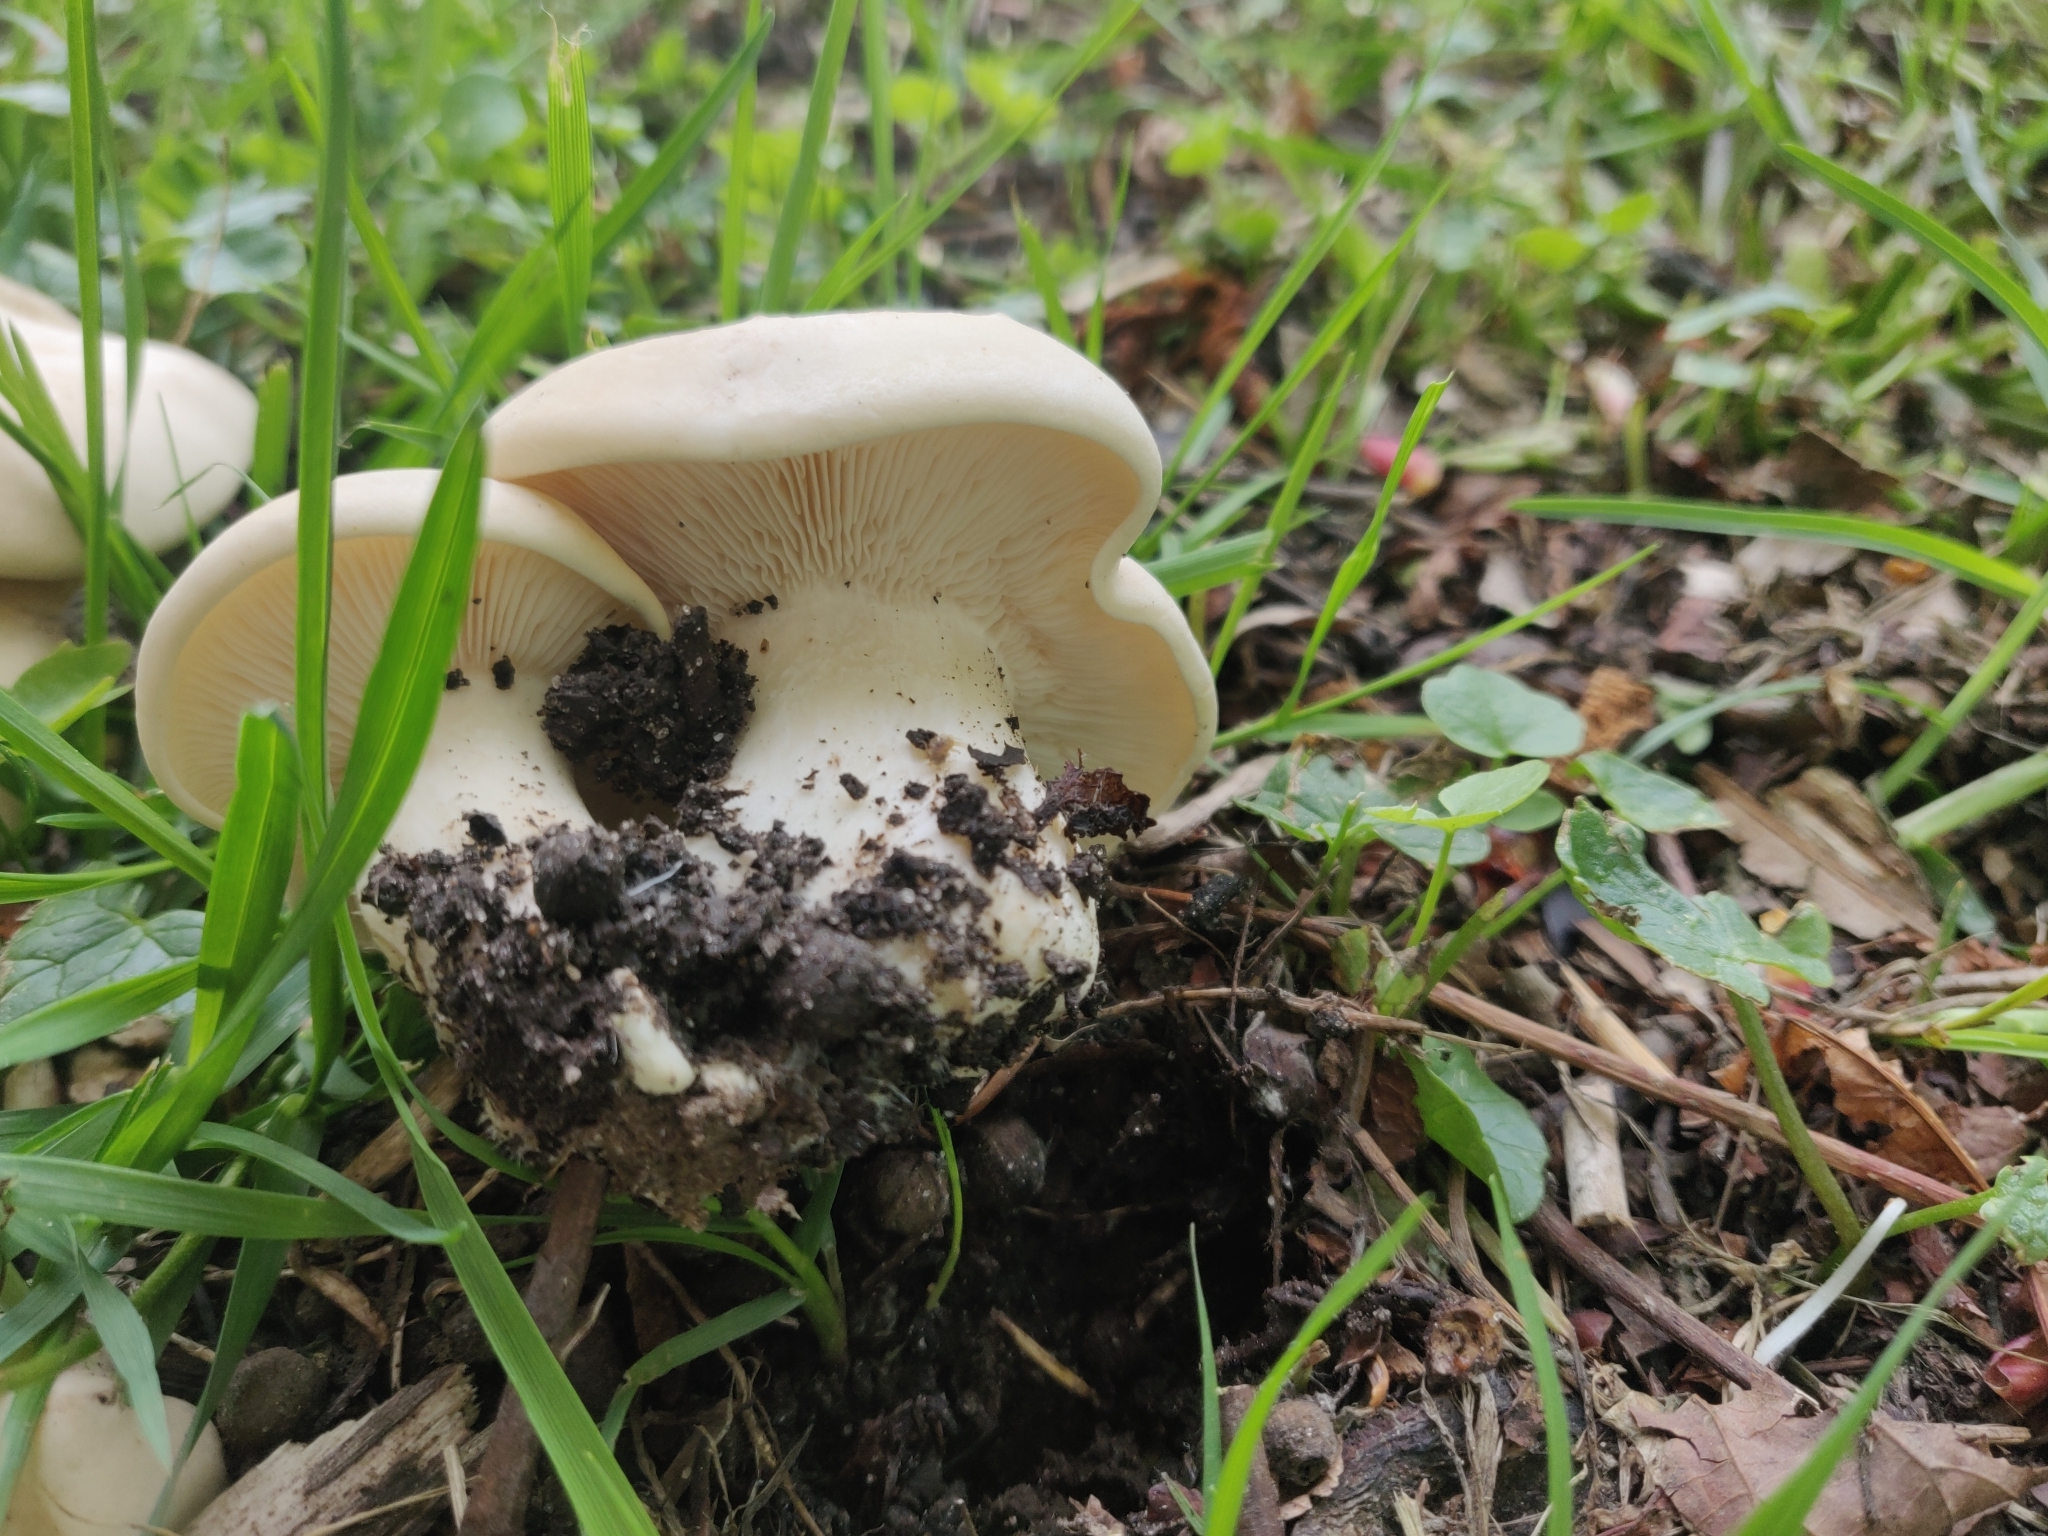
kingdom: Fungi
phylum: Basidiomycota
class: Agaricomycetes
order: Agaricales
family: Lyophyllaceae
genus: Calocybe
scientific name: Calocybe gambosa
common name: St. george's mushroom
